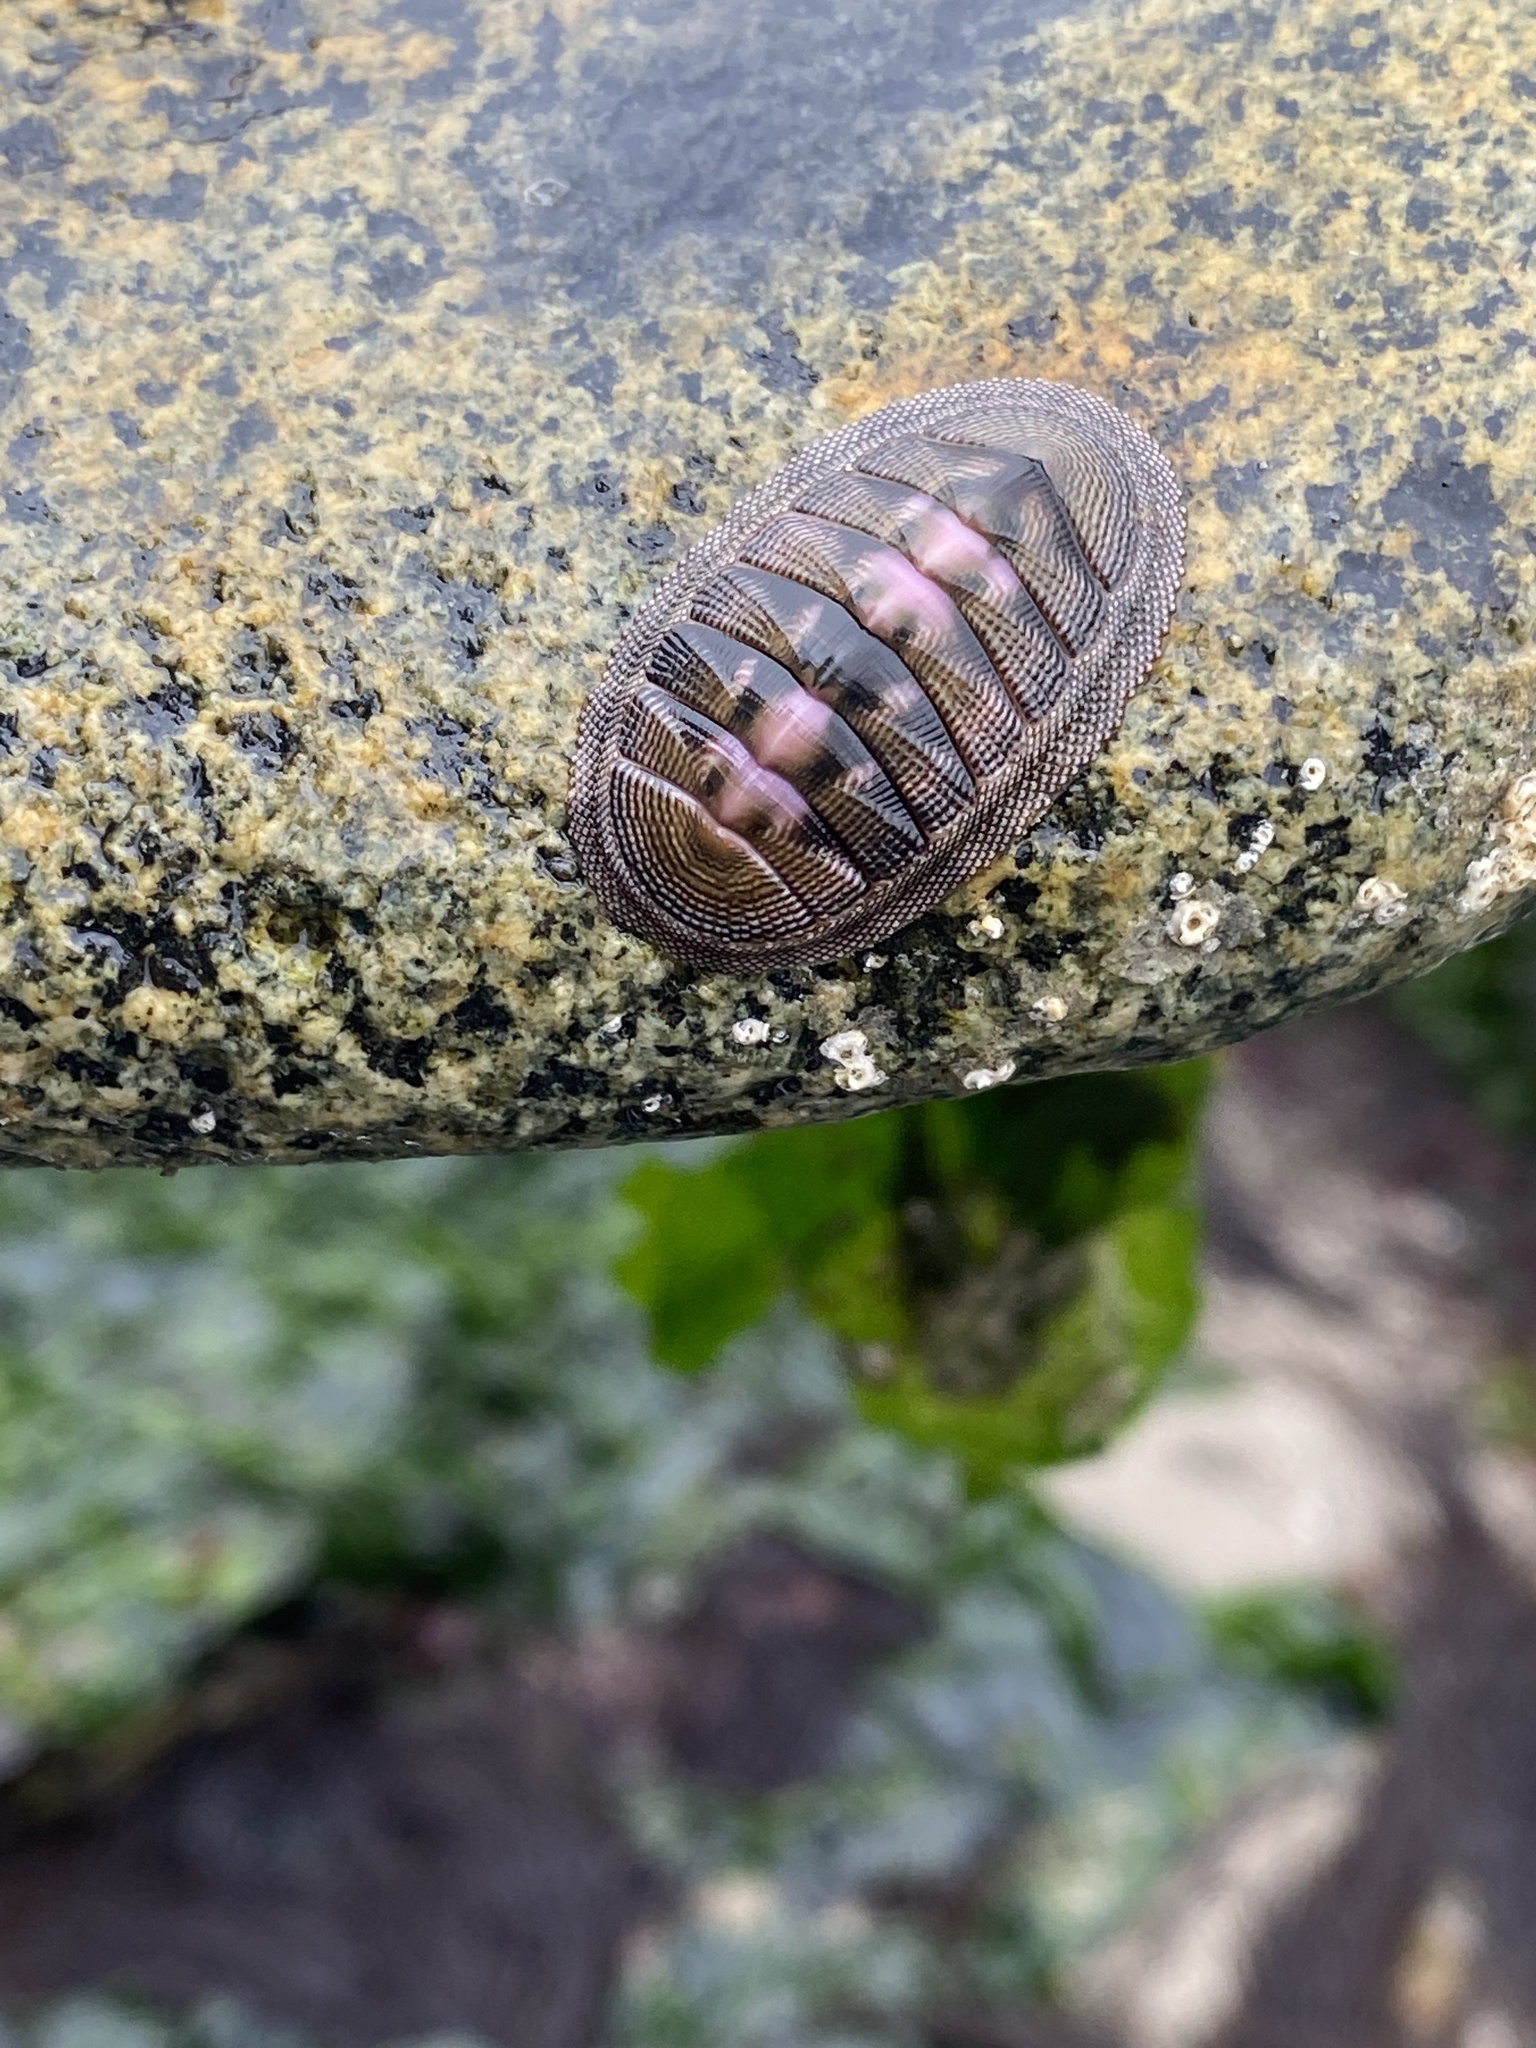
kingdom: Animalia
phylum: Mollusca
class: Polyplacophora
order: Chitonida
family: Chitonidae
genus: Chiton
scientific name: Chiton cumingsii
